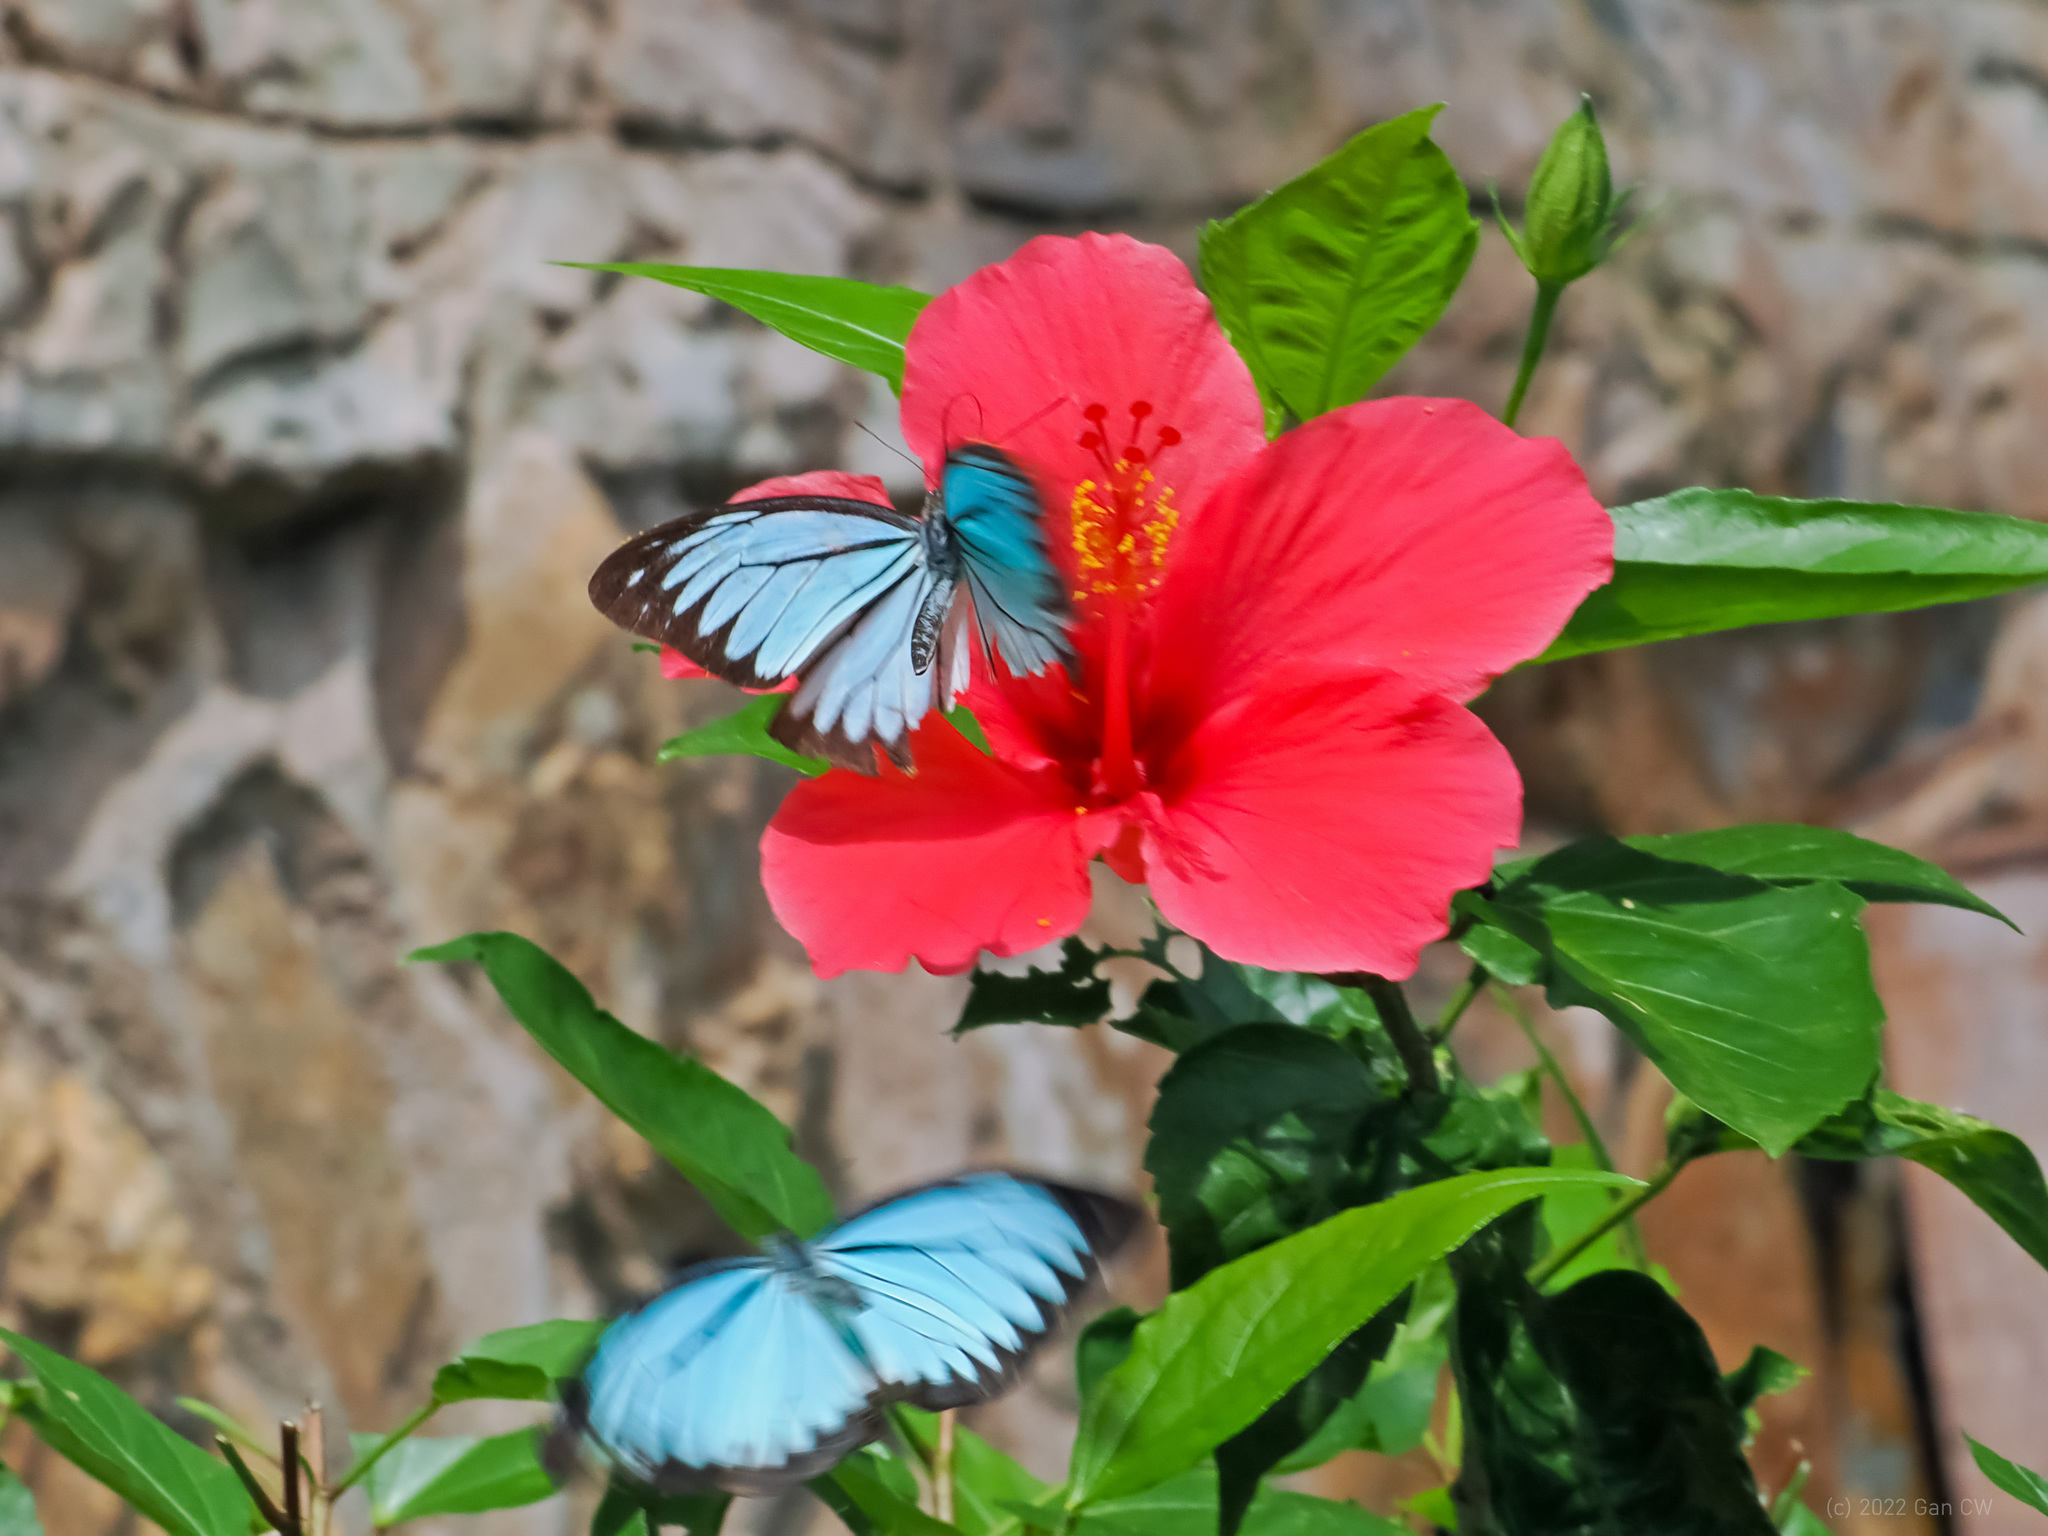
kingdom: Animalia
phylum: Arthropoda
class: Insecta
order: Lepidoptera
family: Pieridae
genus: Pareronia
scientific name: Pareronia valeria
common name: Common wanderer?
